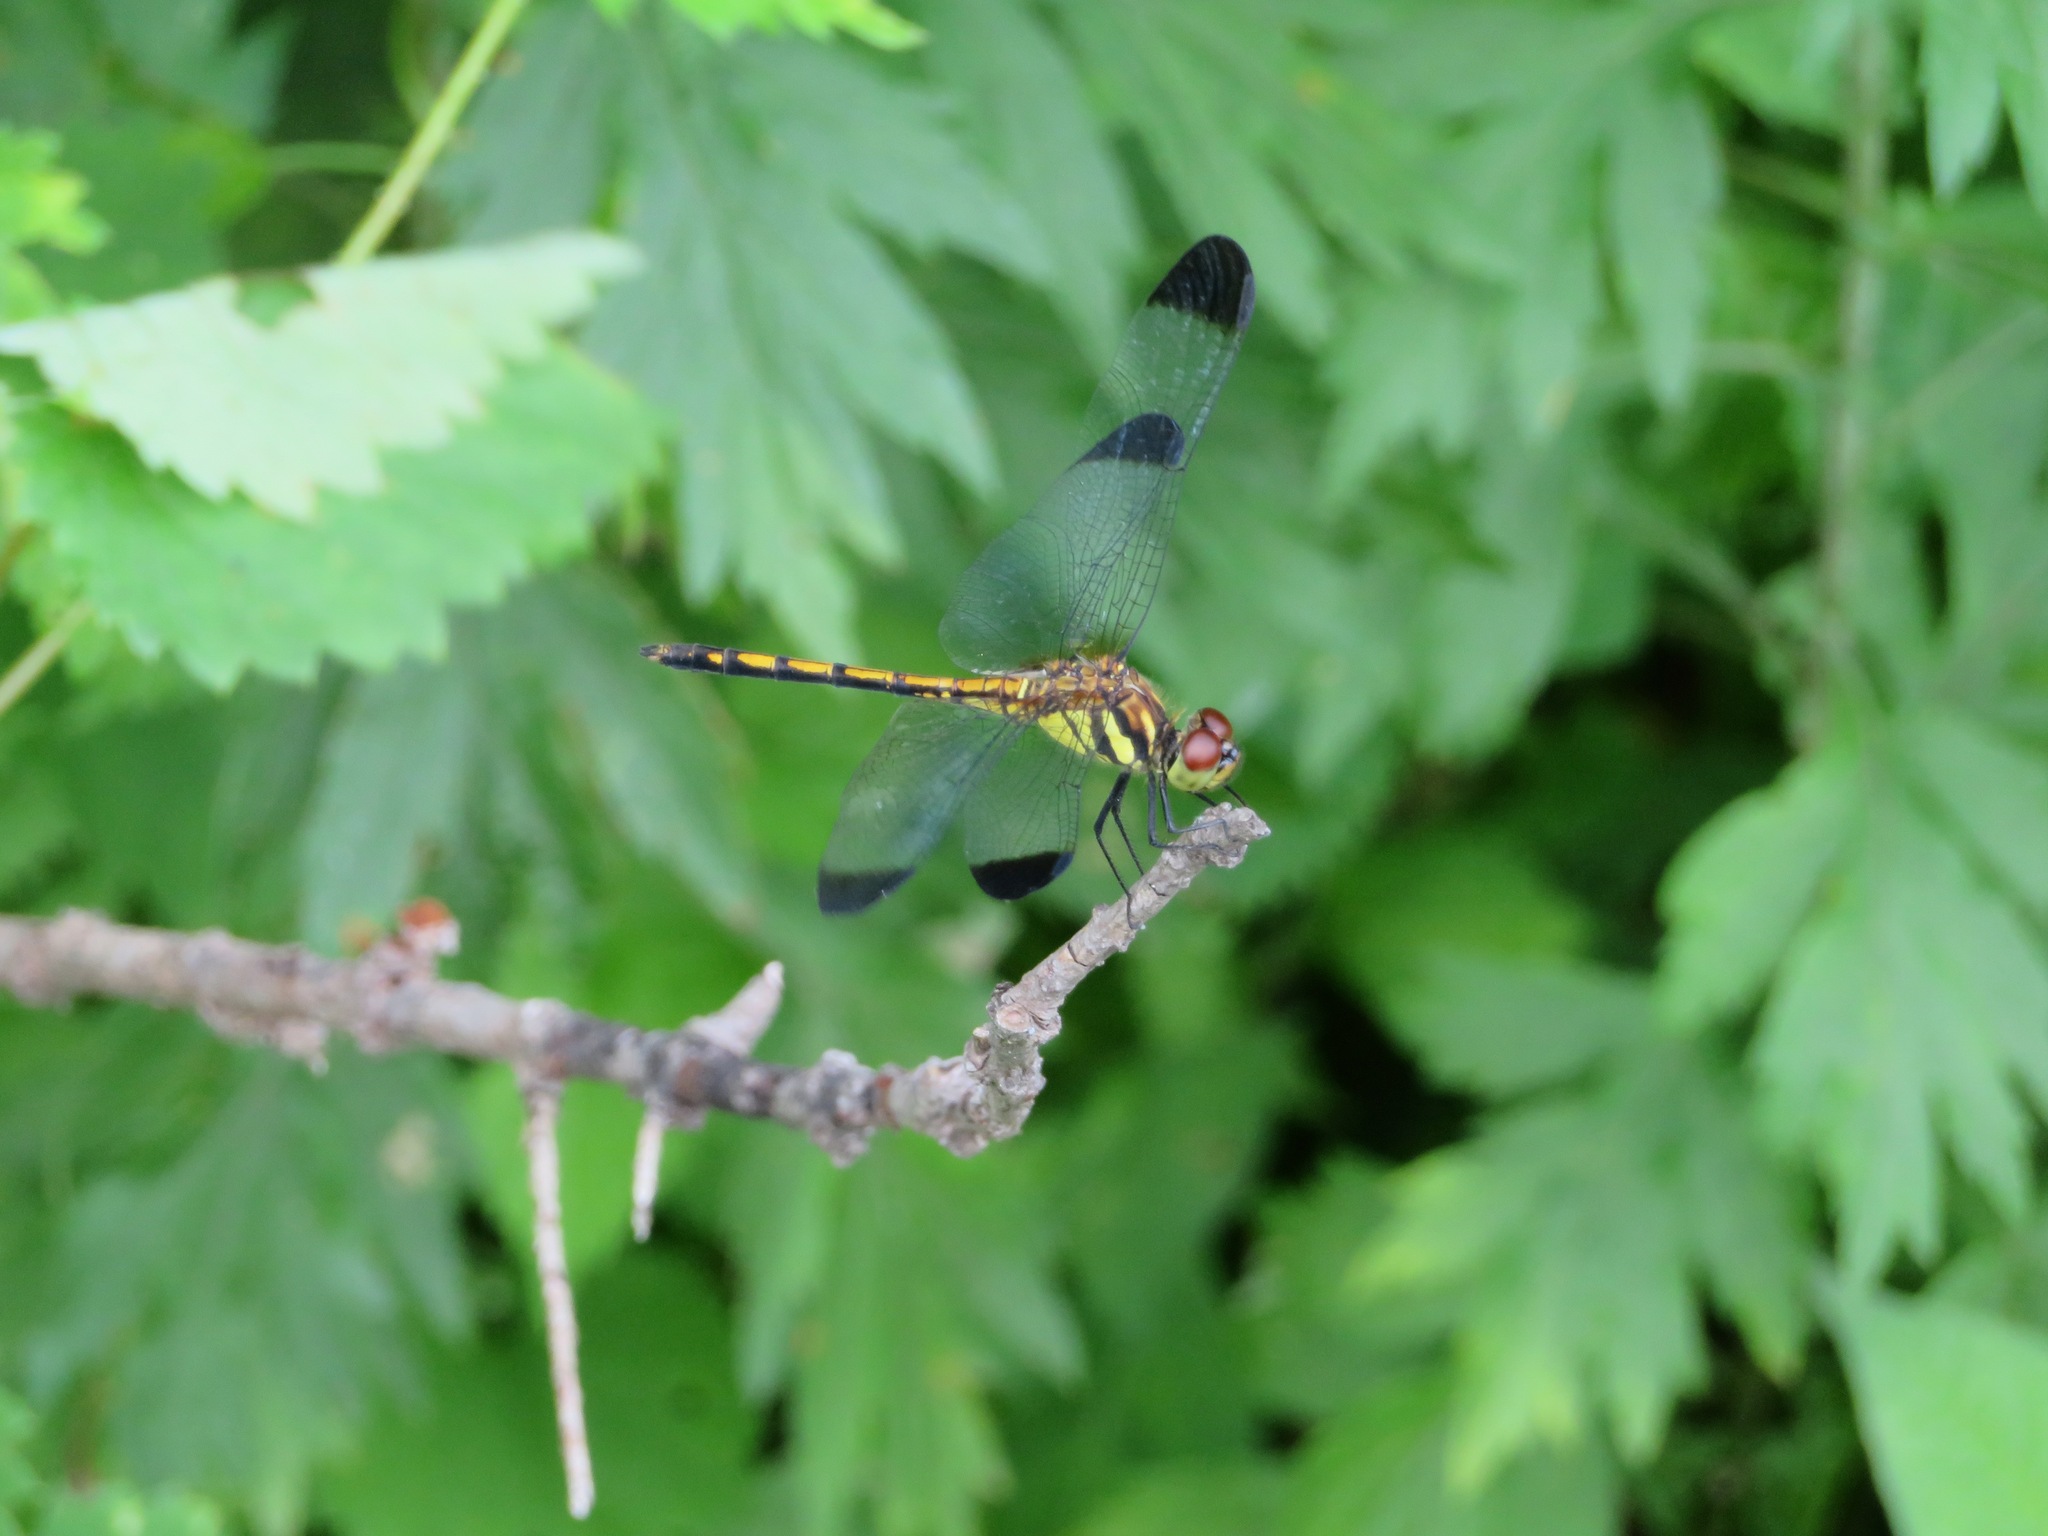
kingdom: Animalia
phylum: Arthropoda
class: Insecta
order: Odonata
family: Libellulidae
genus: Sympetrum
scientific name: Sympetrum infuscatum
